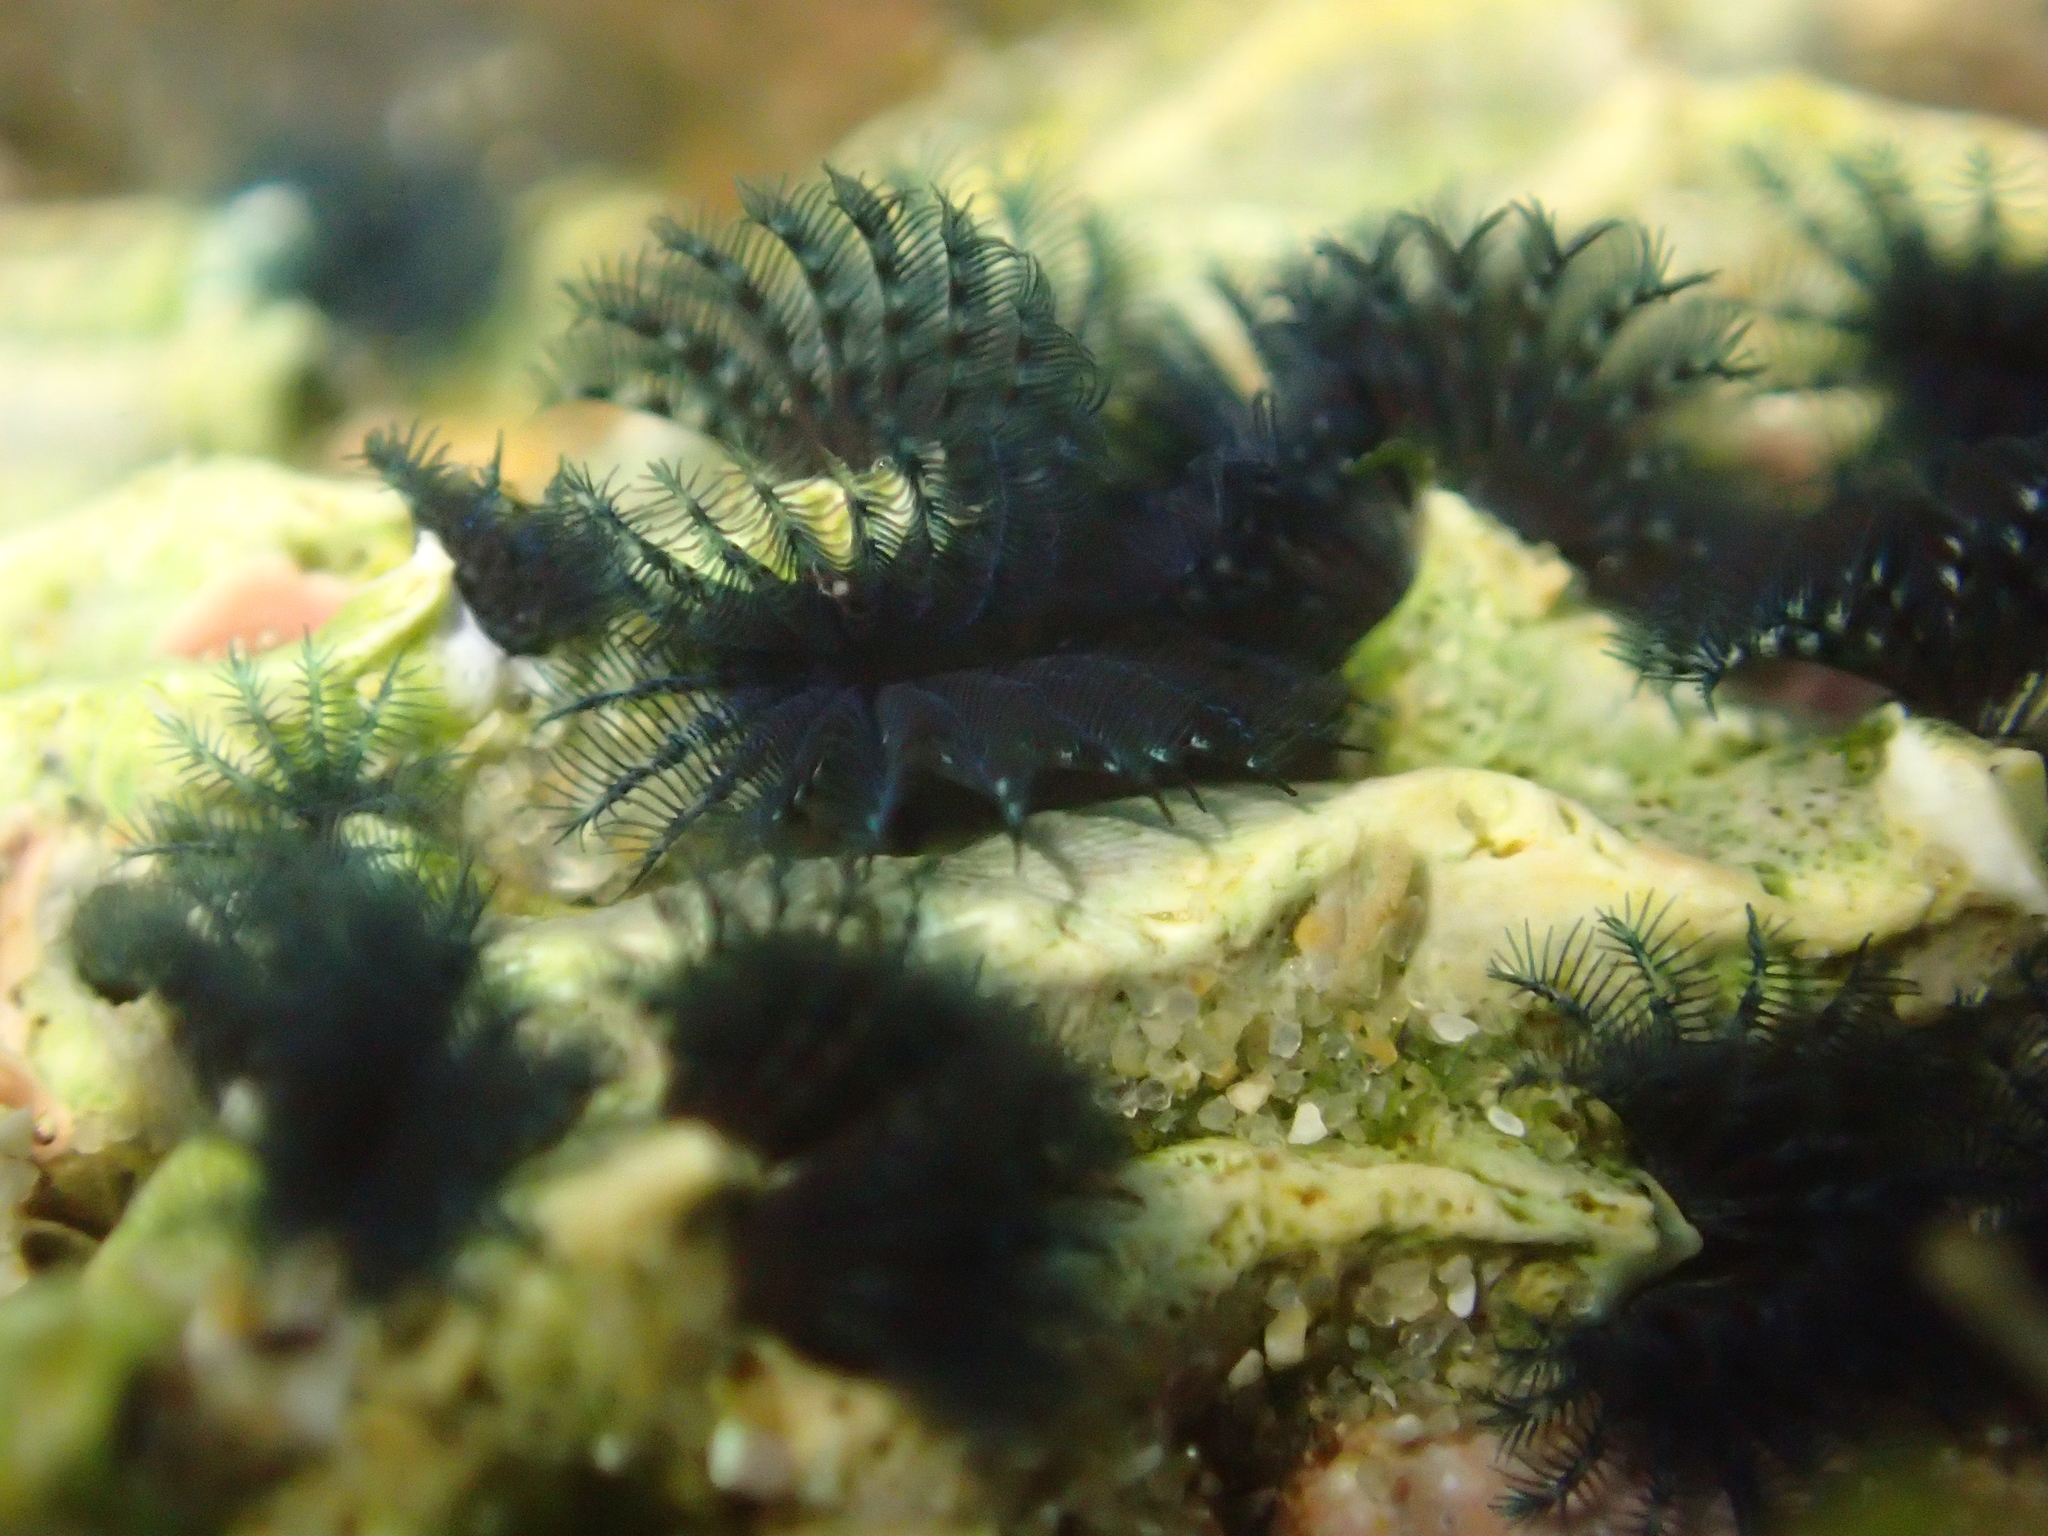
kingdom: Animalia
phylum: Annelida
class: Polychaeta
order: Sabellida
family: Serpulidae
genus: Spirobranchus
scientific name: Spirobranchus cariniferus
